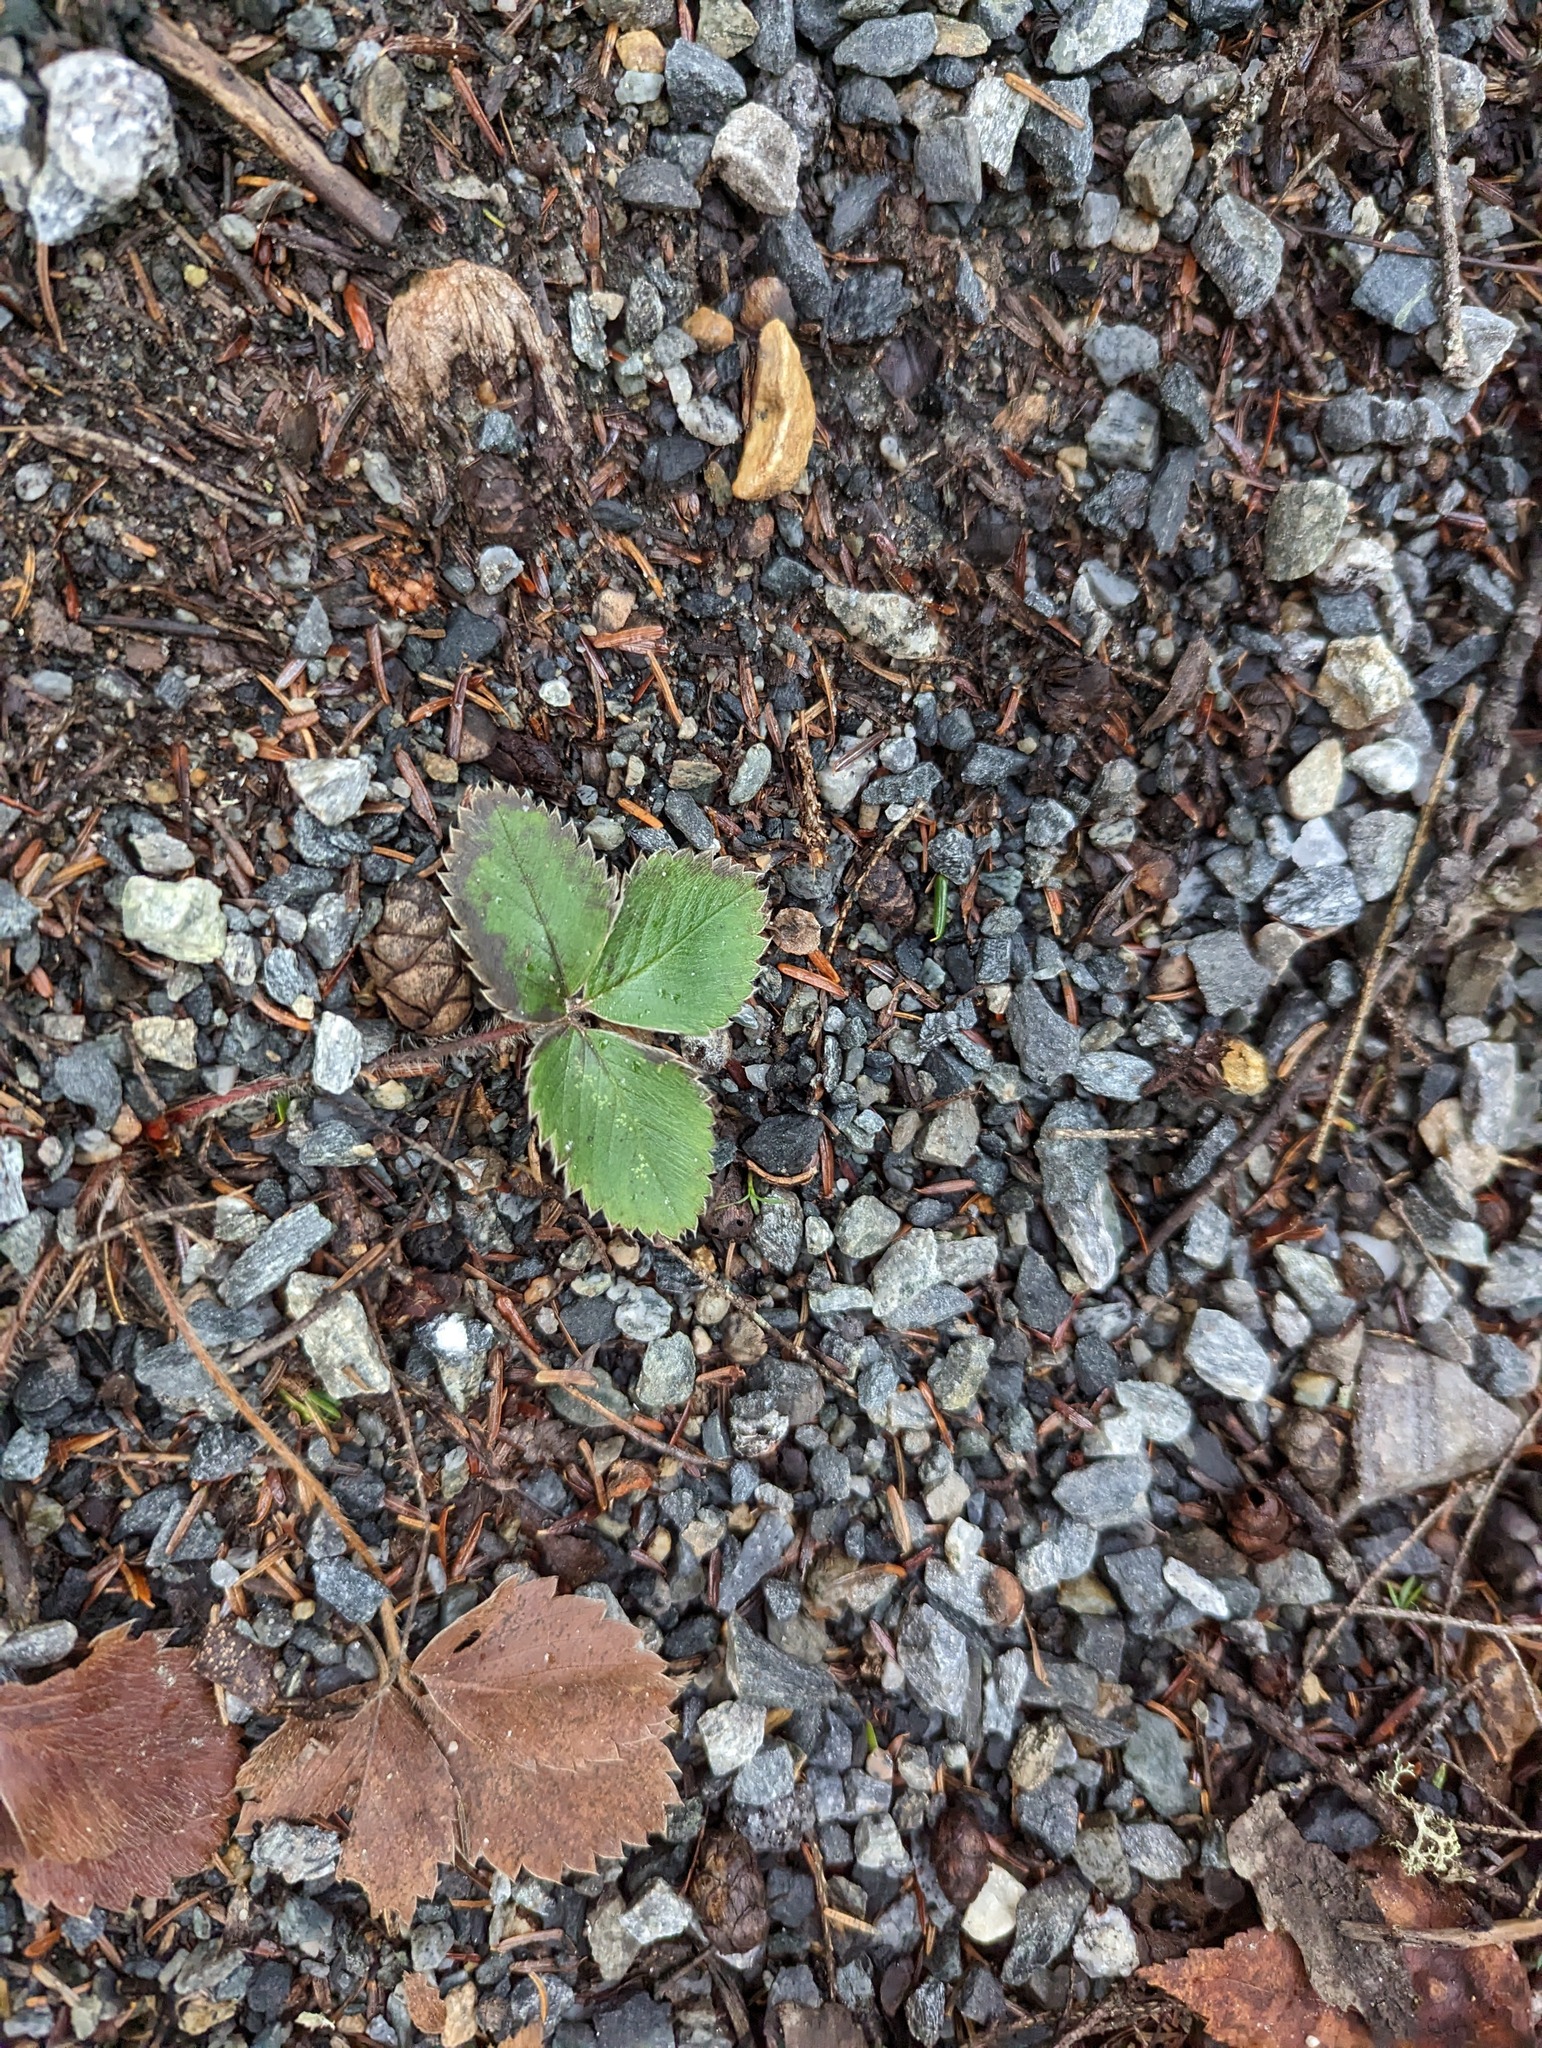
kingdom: Plantae
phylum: Tracheophyta
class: Magnoliopsida
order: Rosales
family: Rosaceae
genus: Fragaria
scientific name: Fragaria virginiana
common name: Thickleaved wild strawberry
